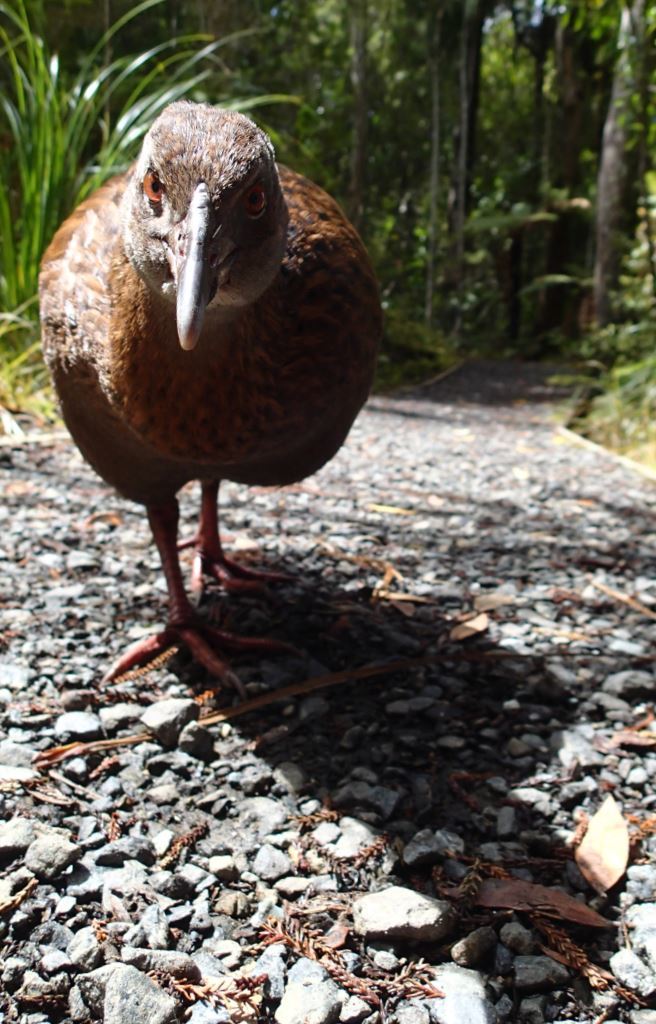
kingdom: Animalia
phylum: Chordata
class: Aves
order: Gruiformes
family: Rallidae
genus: Gallirallus
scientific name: Gallirallus australis
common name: Weka
